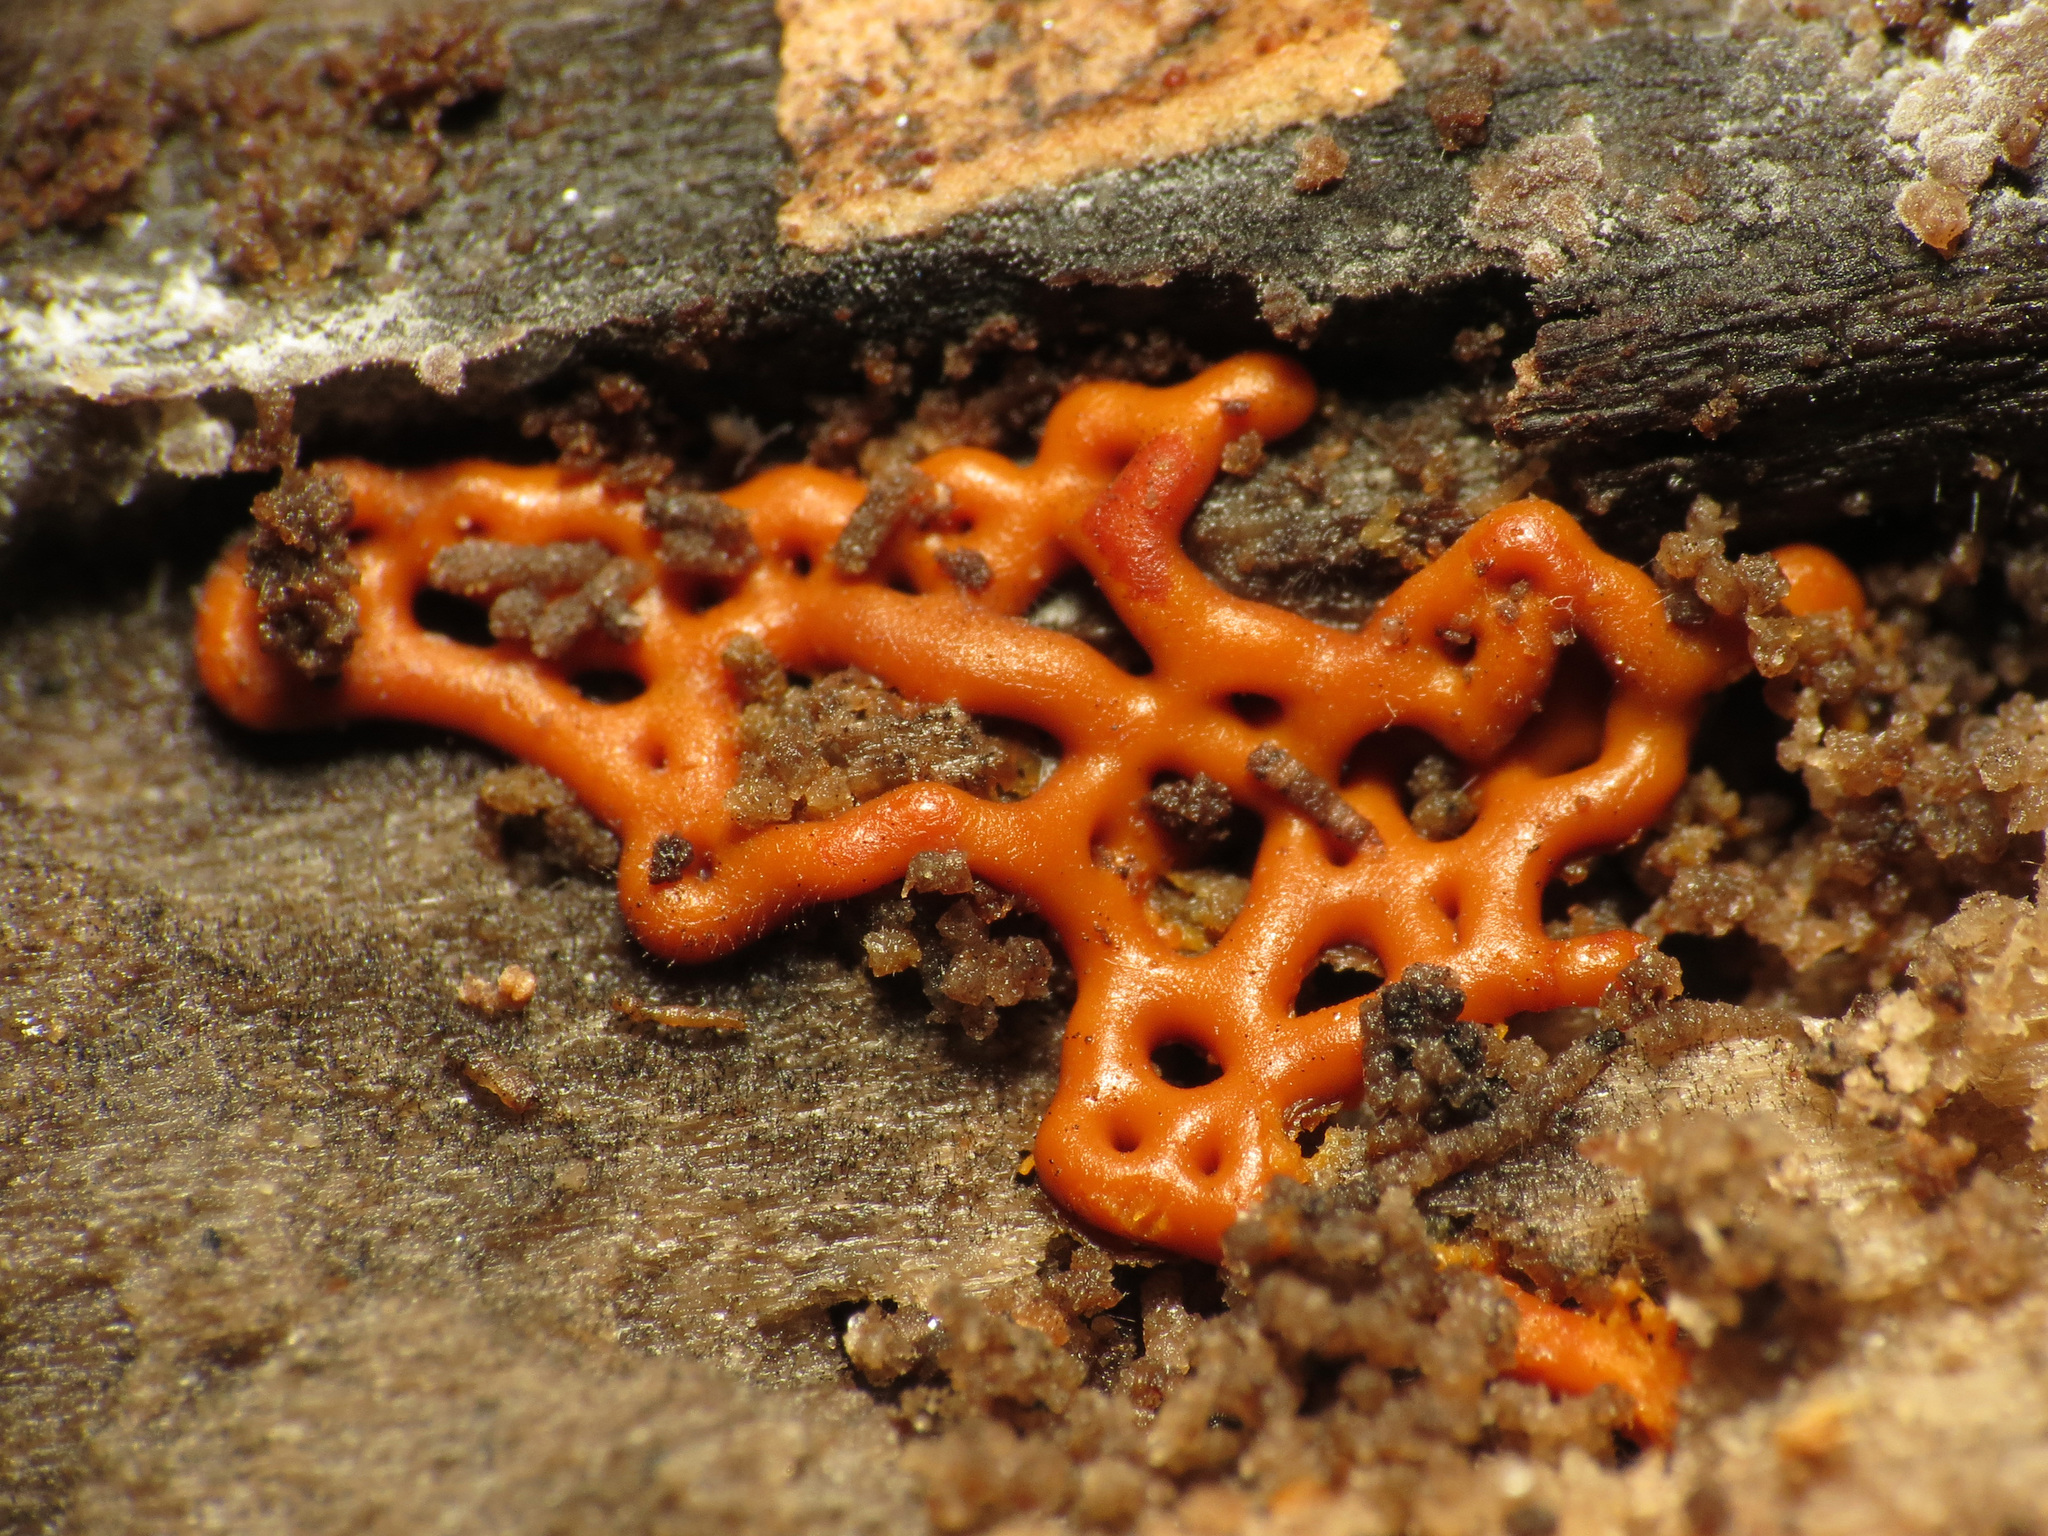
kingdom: Protozoa
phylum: Mycetozoa
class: Myxomycetes
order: Trichiales
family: Arcyriaceae
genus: Hemitrichia
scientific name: Hemitrichia serpula
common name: Pretzel slime mold
